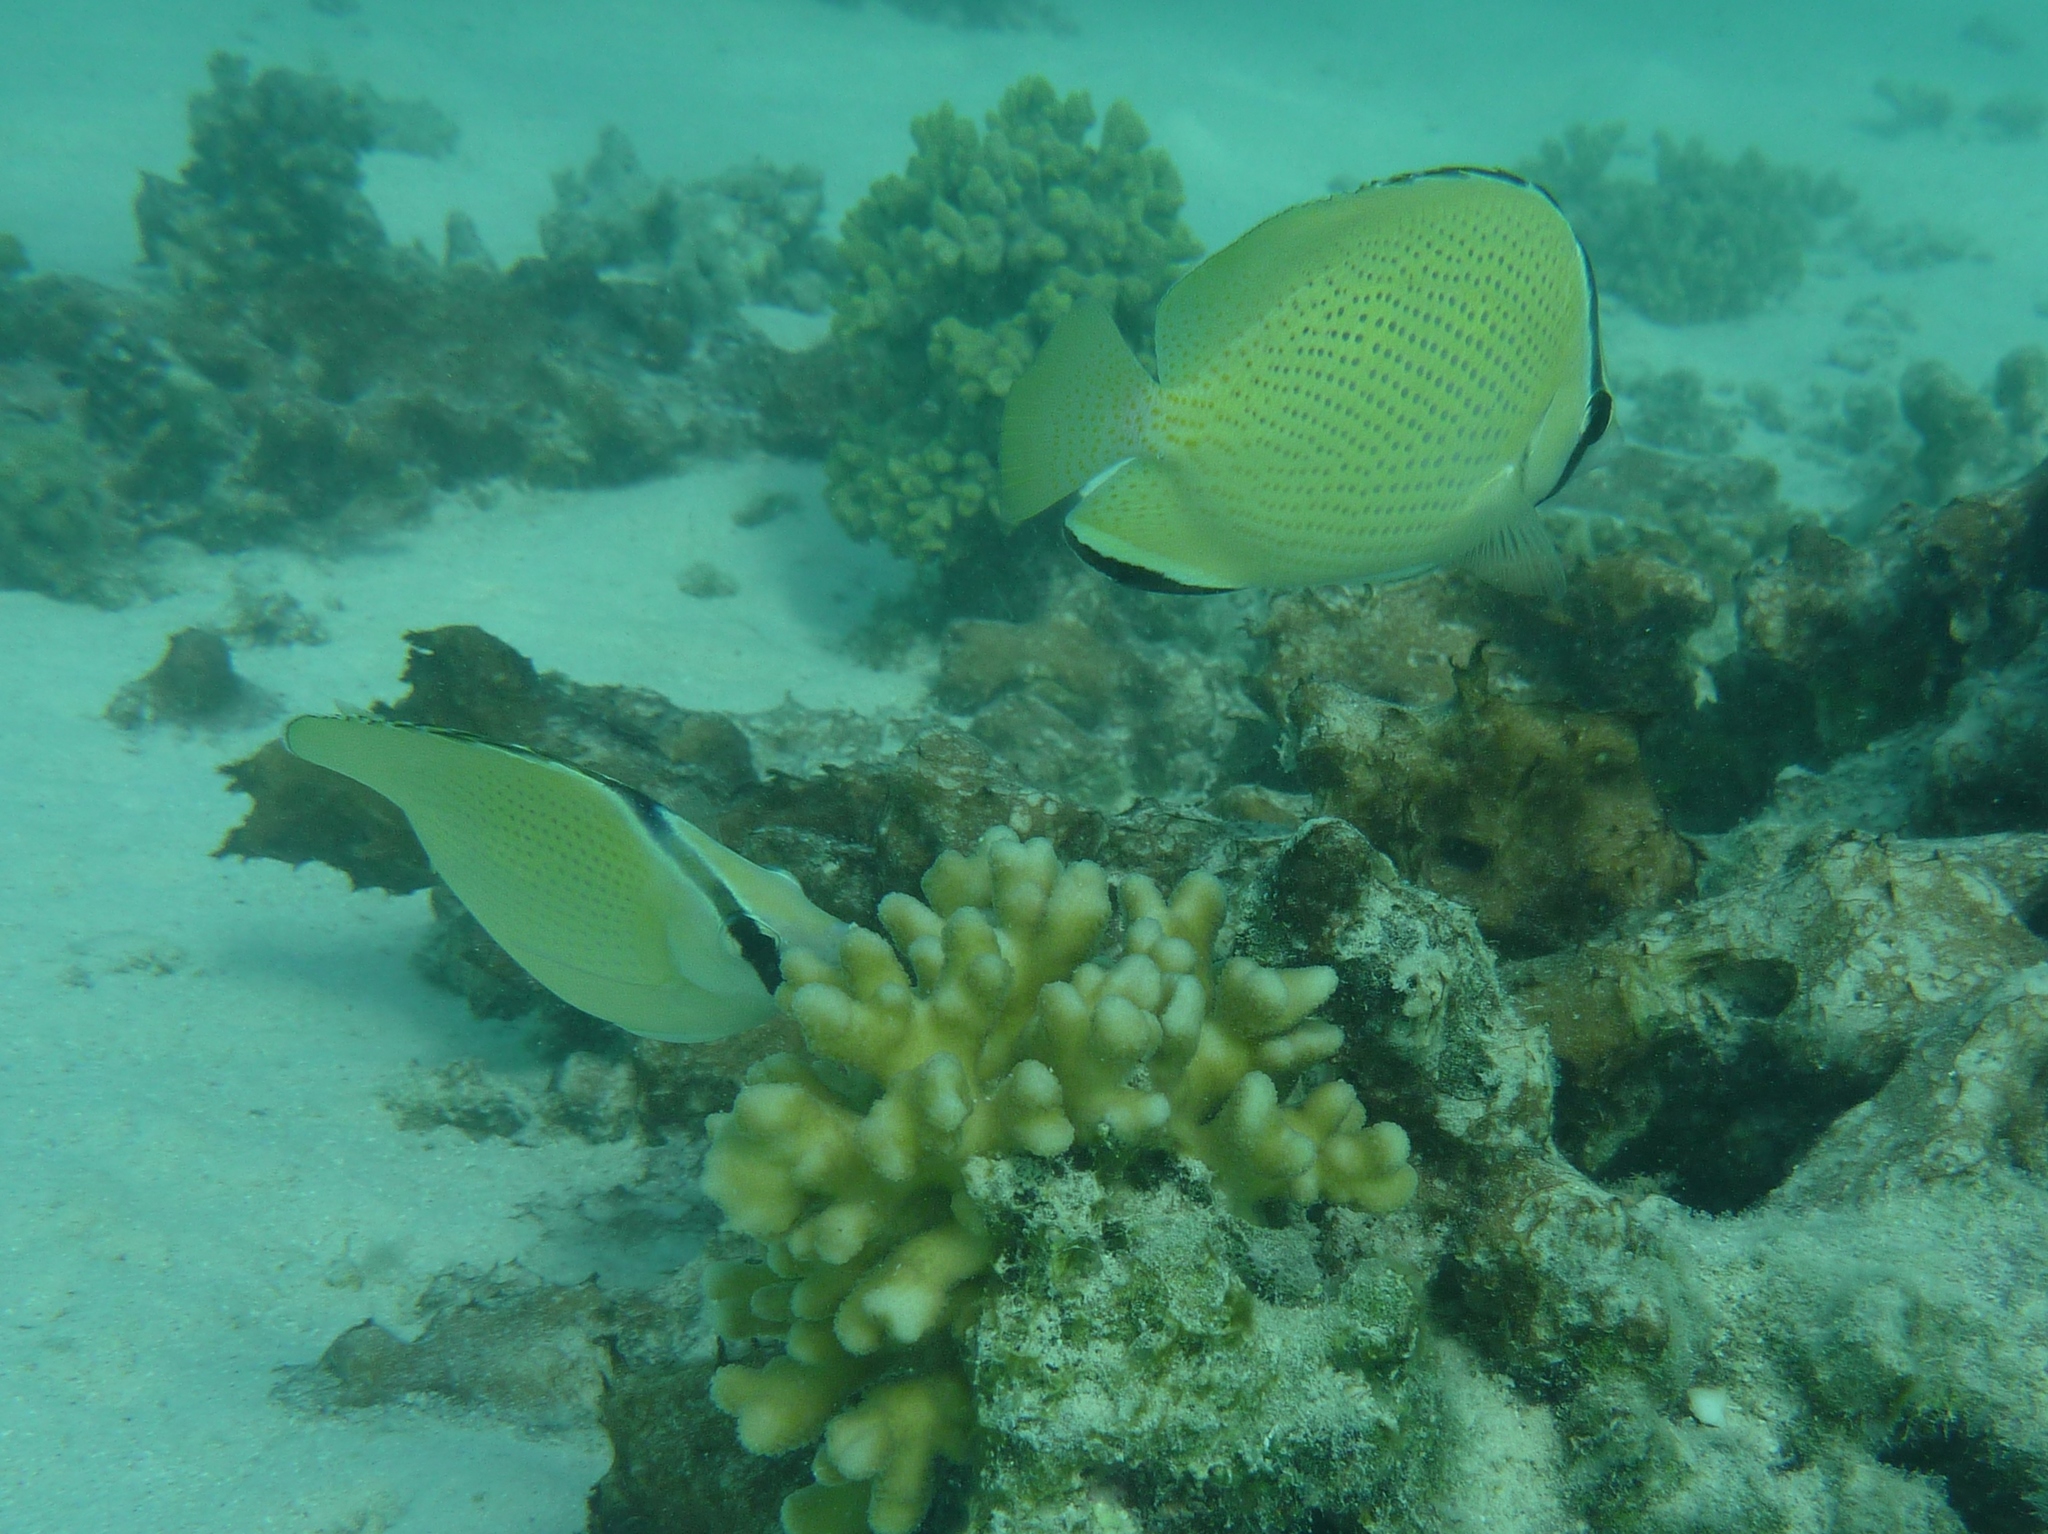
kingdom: Animalia
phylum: Chordata
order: Perciformes
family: Chaetodontidae
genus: Chaetodon
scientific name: Chaetodon citrinellus
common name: Speckled butterflyfish
